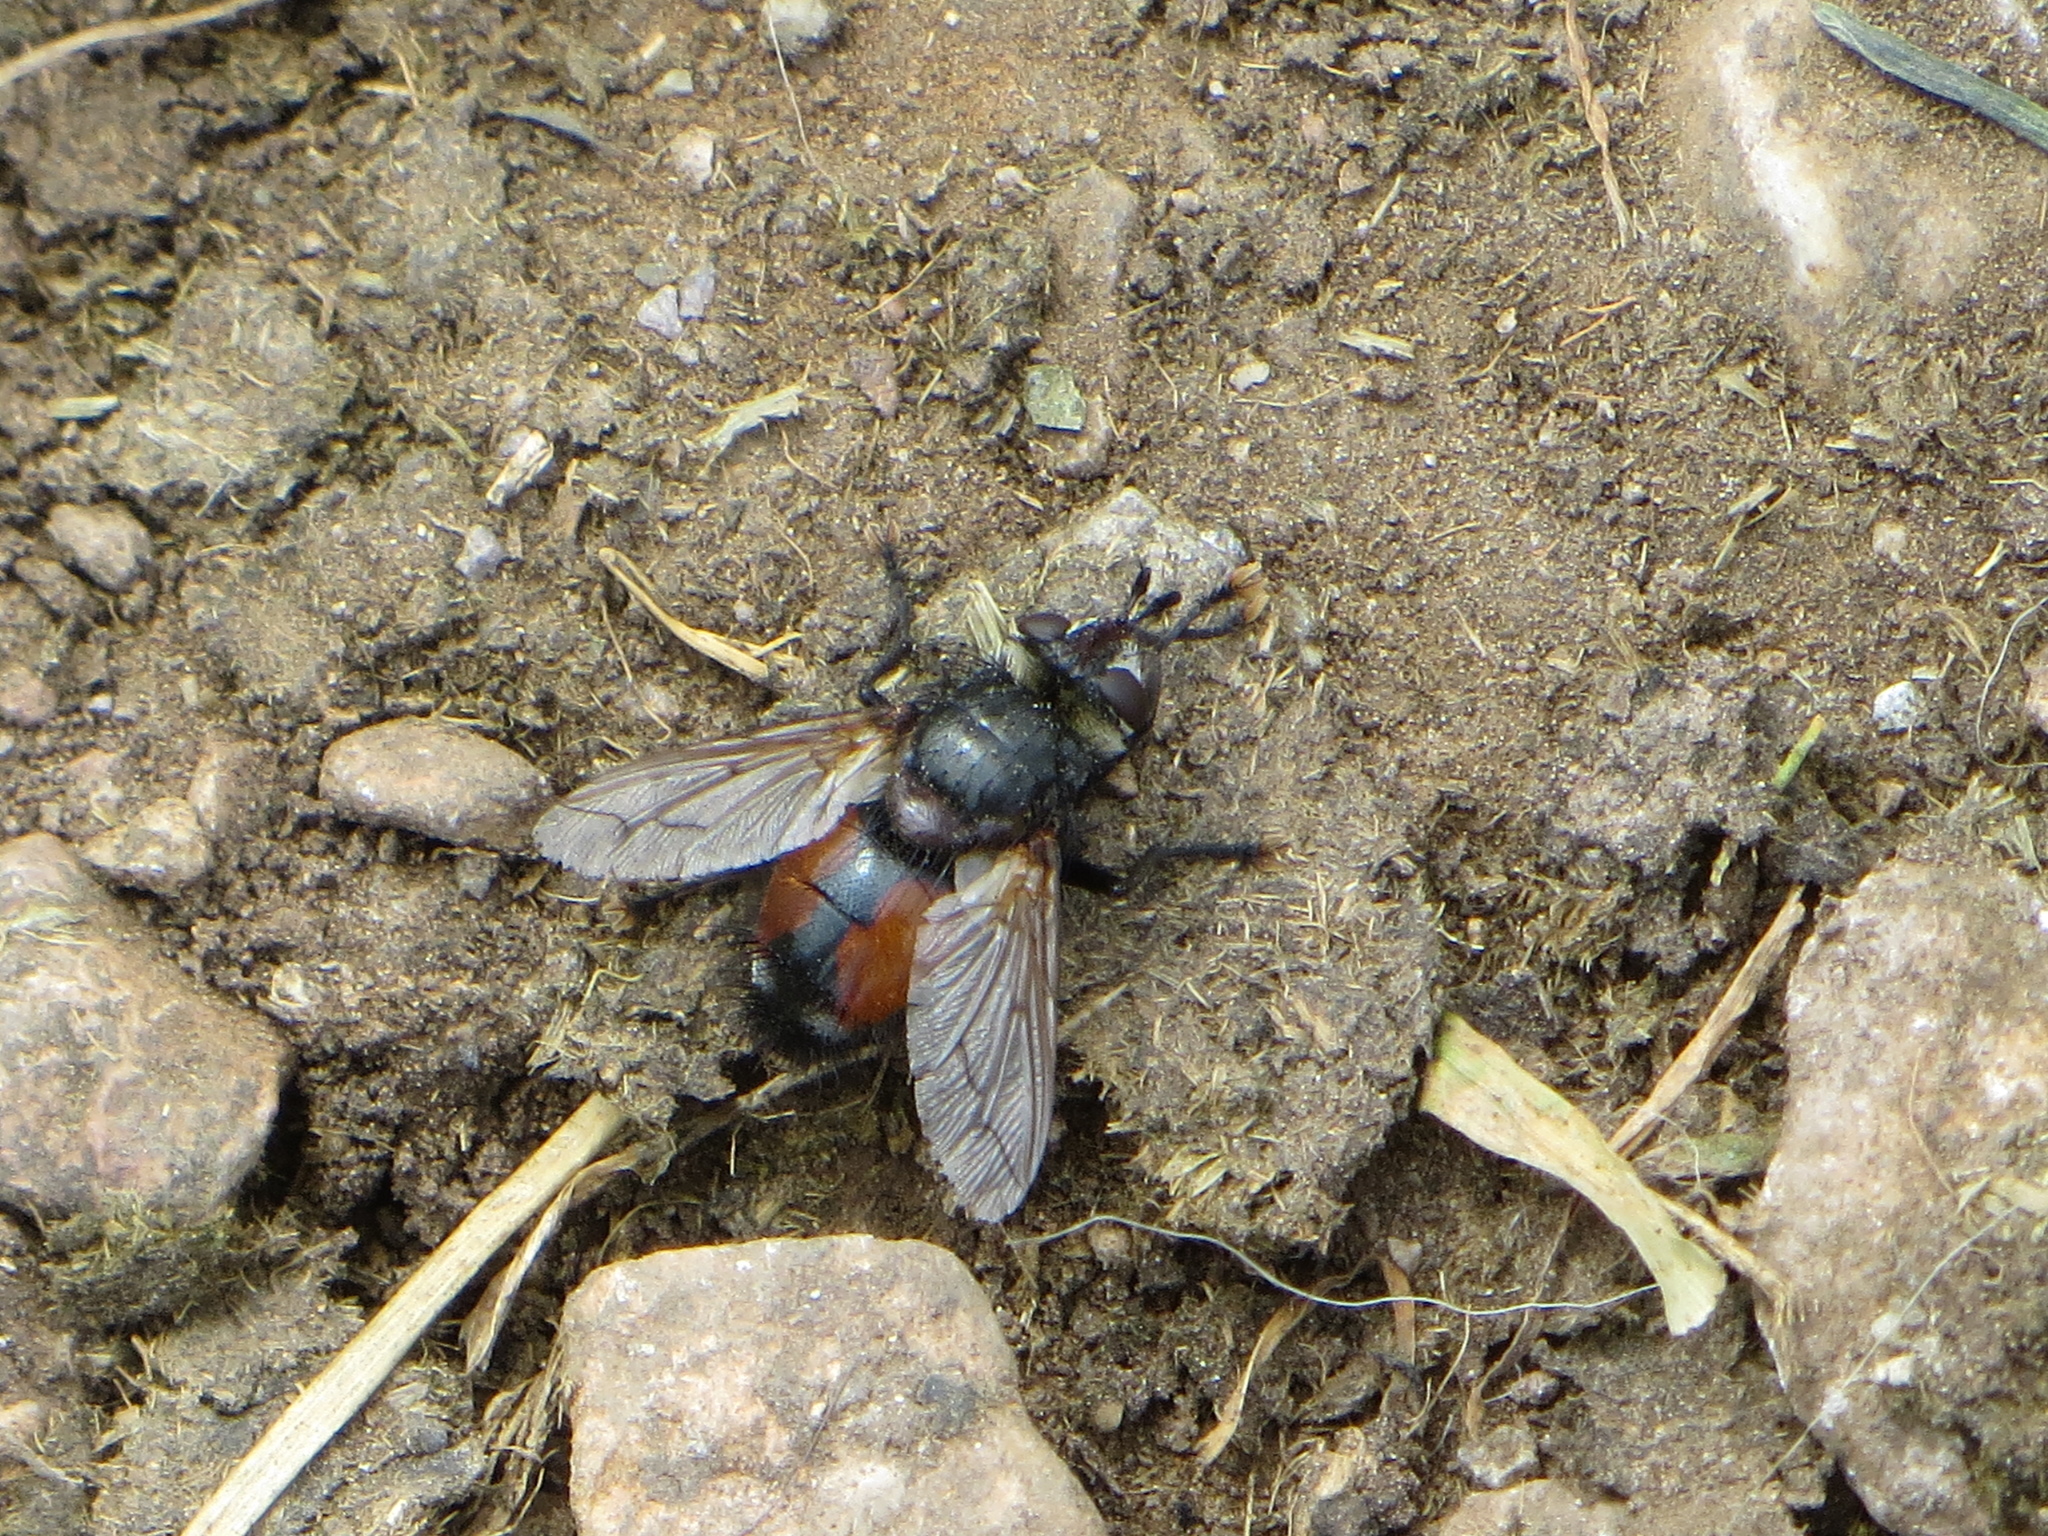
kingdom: Animalia
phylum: Arthropoda
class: Insecta
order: Diptera
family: Tachinidae
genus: Peleteria
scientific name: Peleteria rubescens
